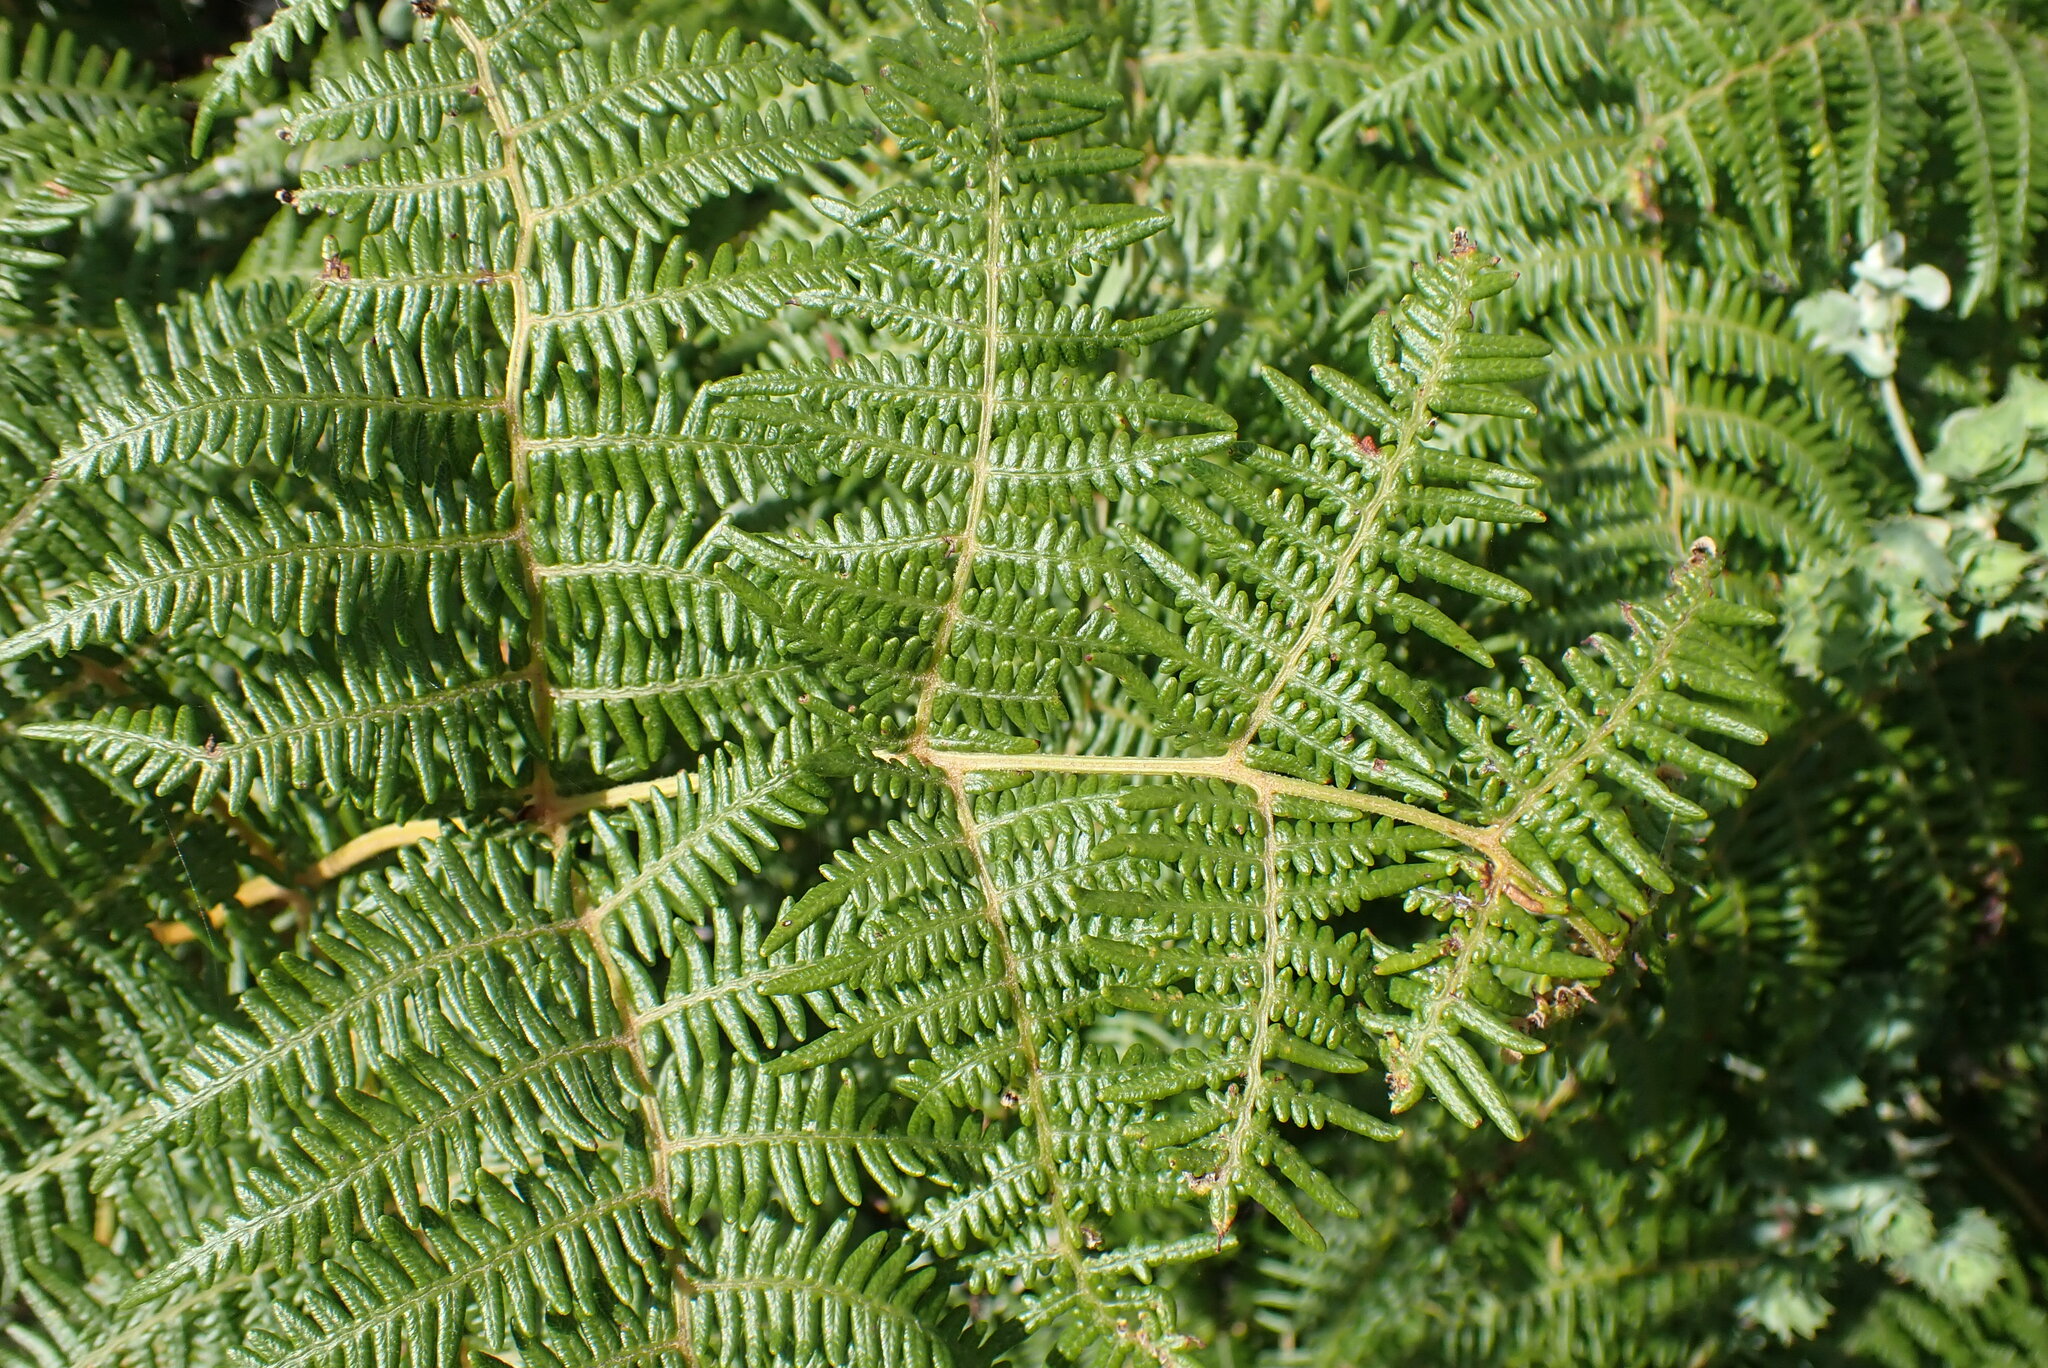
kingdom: Plantae
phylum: Tracheophyta
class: Polypodiopsida
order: Polypodiales
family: Dennstaedtiaceae
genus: Pteridium
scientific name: Pteridium aquilinum
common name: Bracken
